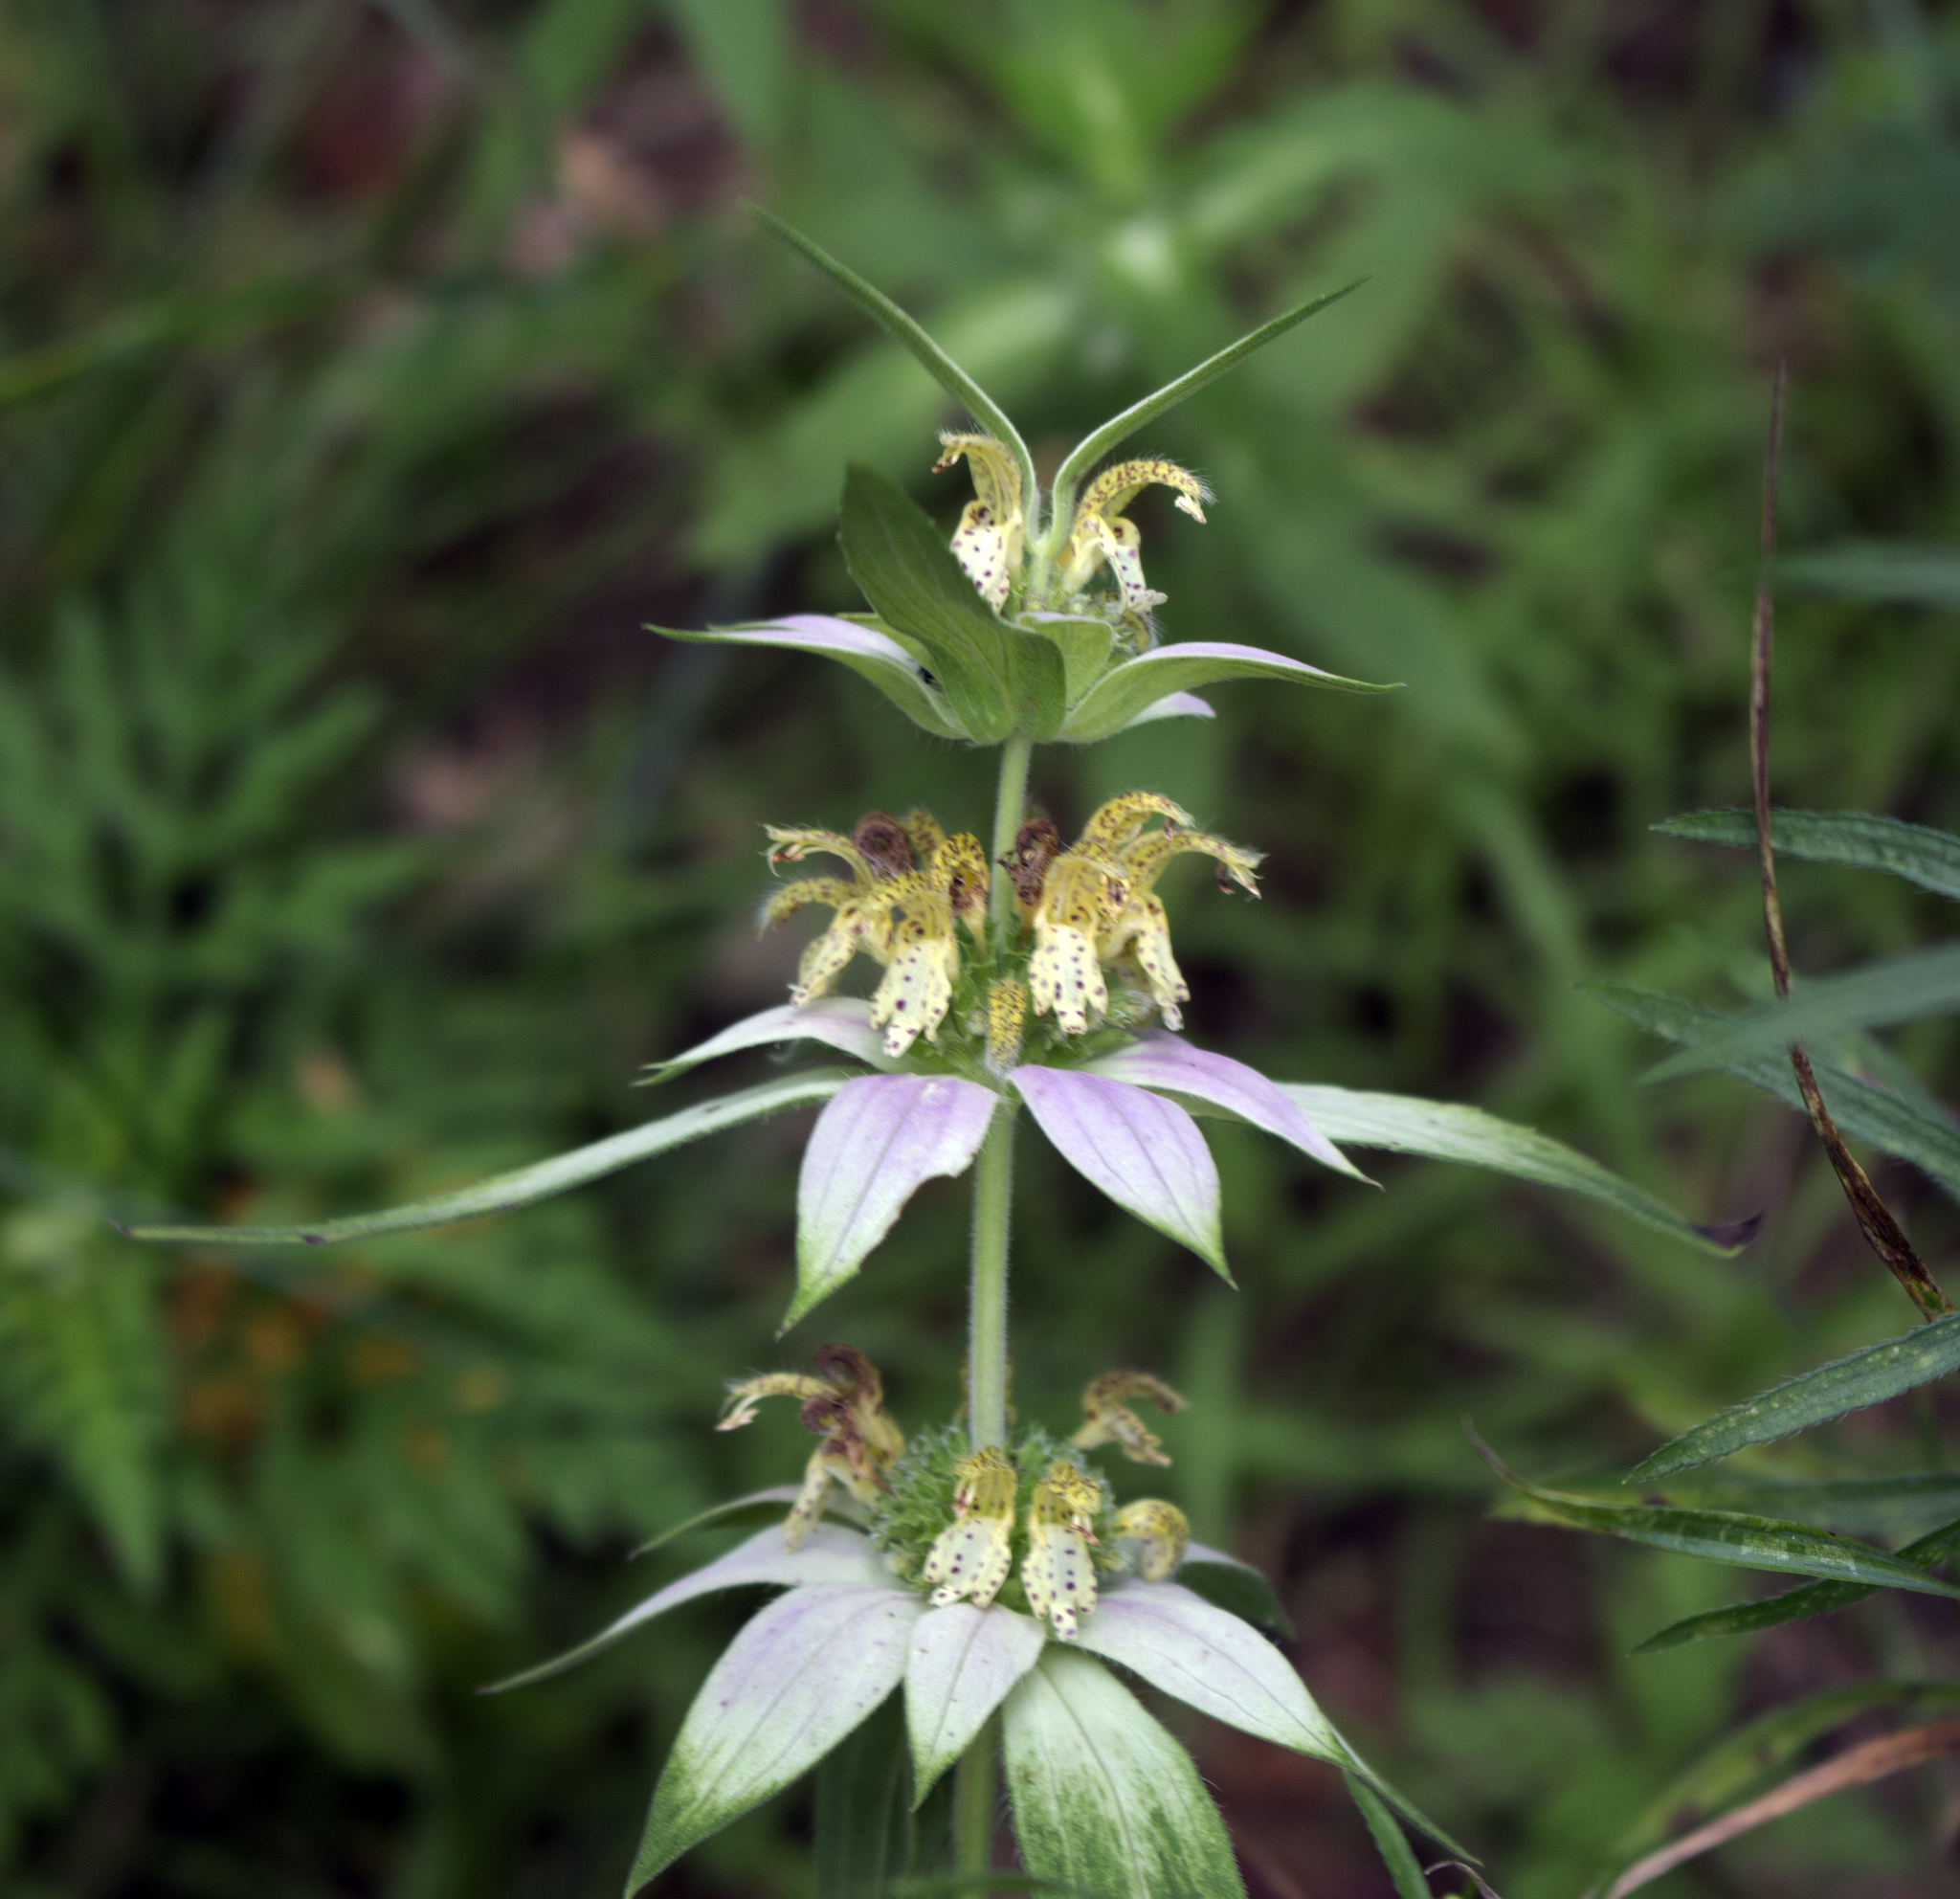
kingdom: Plantae
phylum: Tracheophyta
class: Magnoliopsida
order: Lamiales
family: Lamiaceae
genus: Monarda
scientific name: Monarda punctata
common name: Dotted monarda
